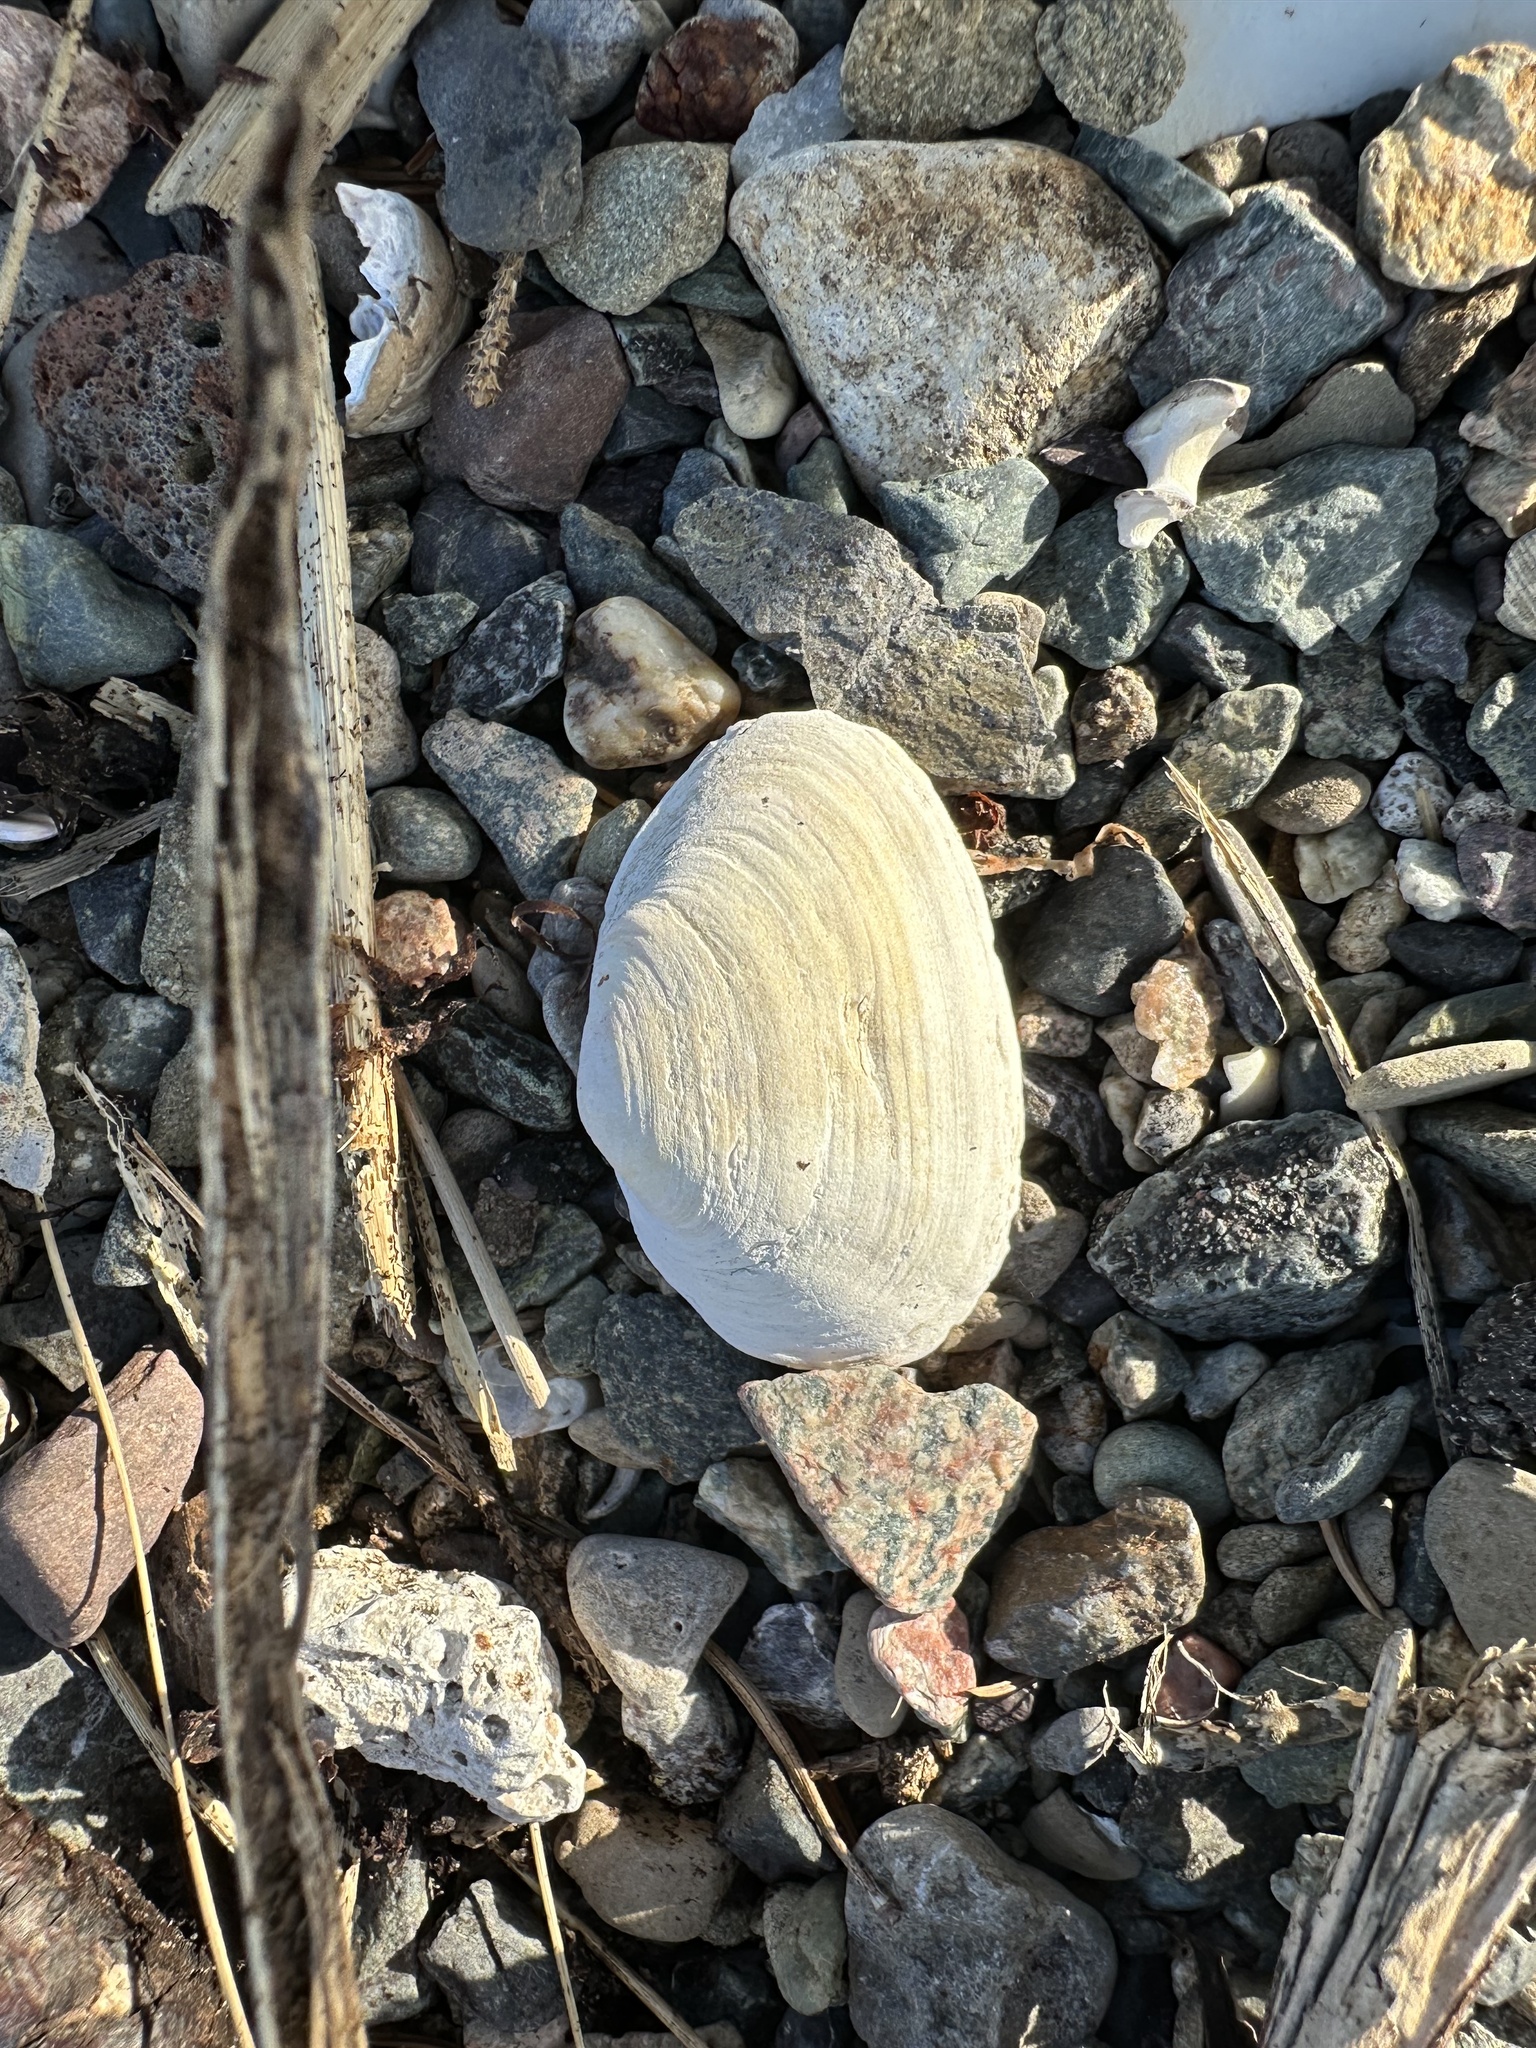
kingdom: Animalia
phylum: Mollusca
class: Bivalvia
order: Myida
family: Myidae
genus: Mya
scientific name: Mya arenaria
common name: Soft-shelled clam
